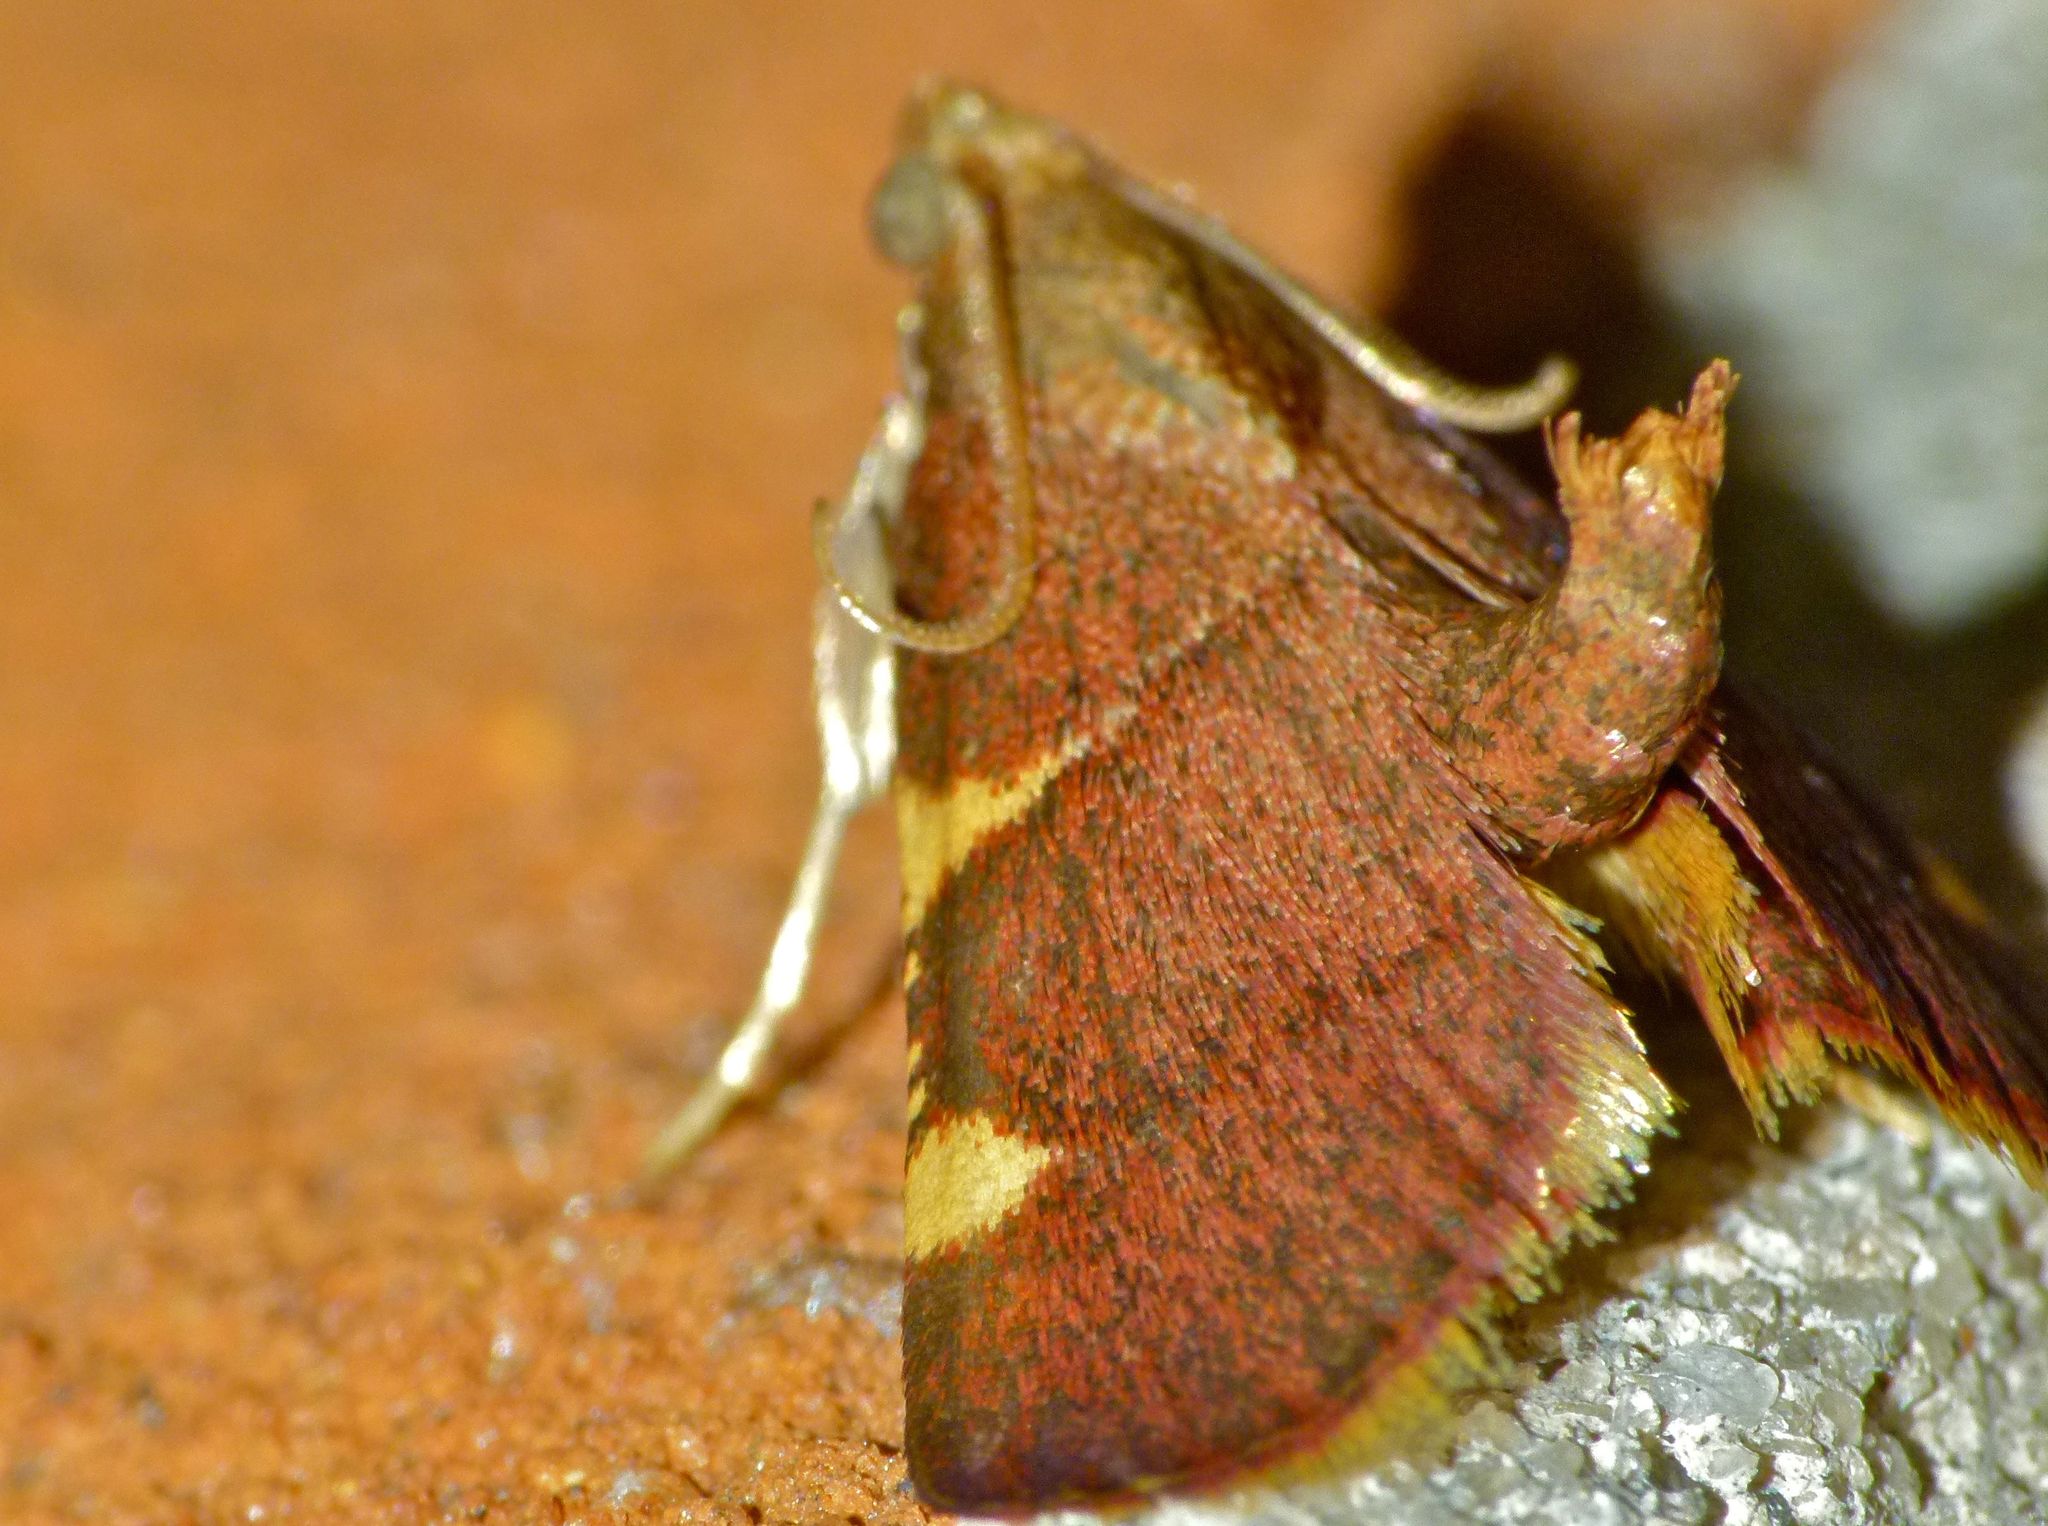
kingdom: Animalia
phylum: Arthropoda
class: Insecta
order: Lepidoptera
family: Pyralidae
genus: Hypsopygia
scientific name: Hypsopygia olinalis
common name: Yellow-fringed dolichomia moth
